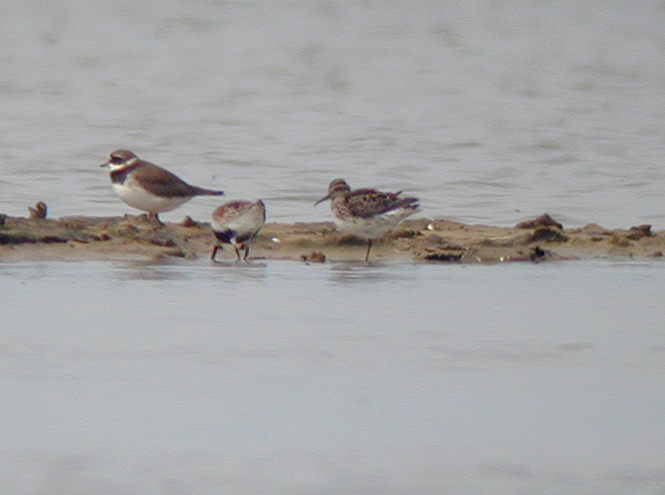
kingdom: Animalia
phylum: Chordata
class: Aves
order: Charadriiformes
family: Scolopacidae
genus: Calidris
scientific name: Calidris falcinellus
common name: Broad-billed sandpiper
